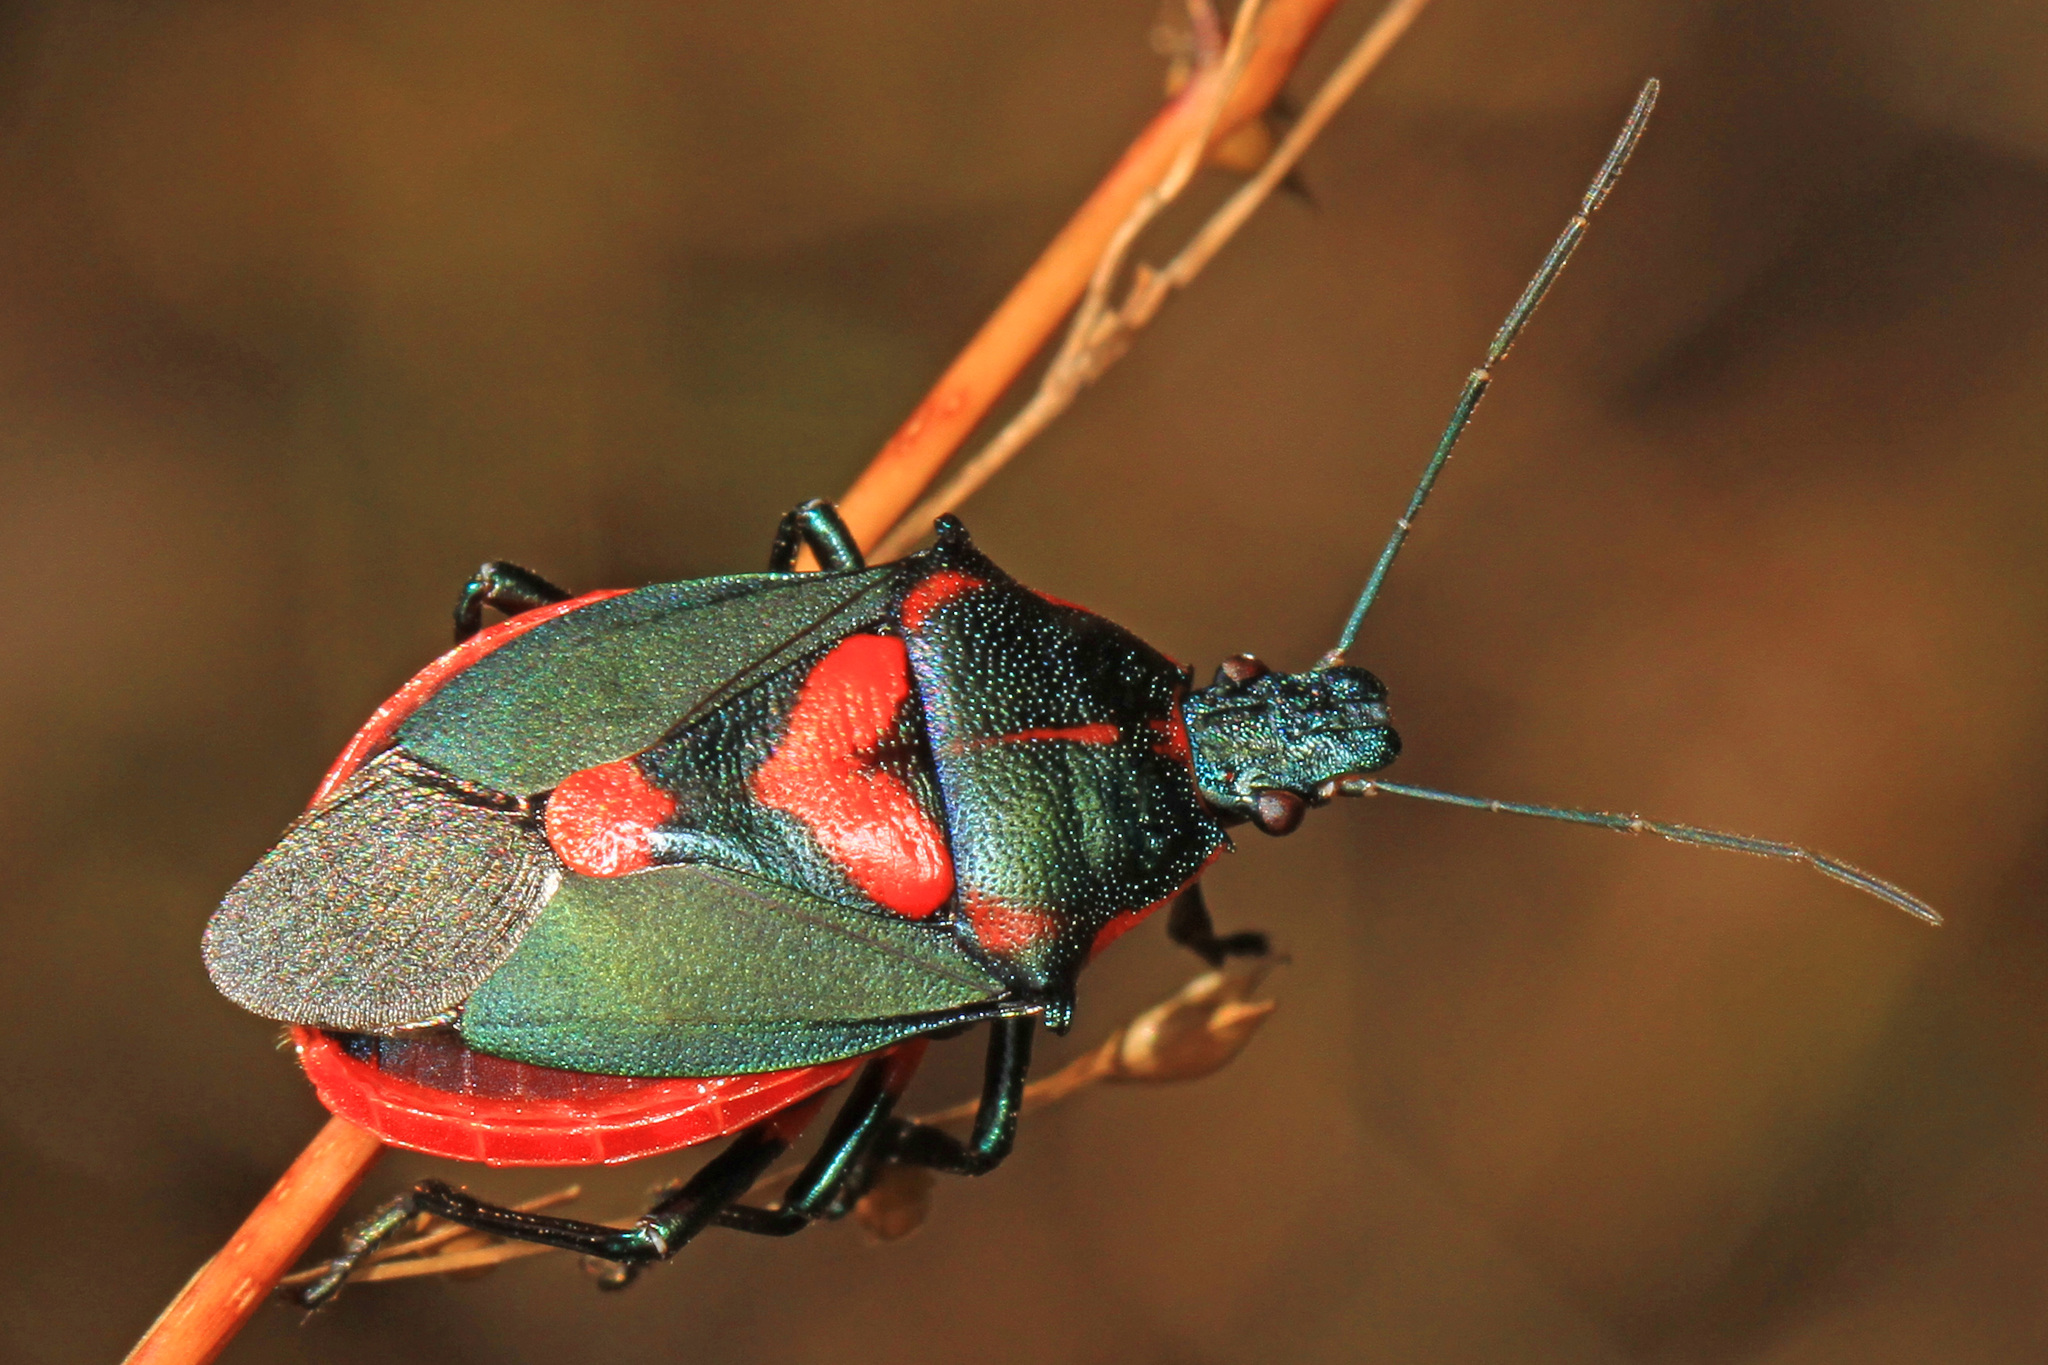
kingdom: Animalia
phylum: Arthropoda
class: Insecta
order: Hemiptera
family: Pentatomidae
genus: Euthyrhynchus
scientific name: Euthyrhynchus floridanus
